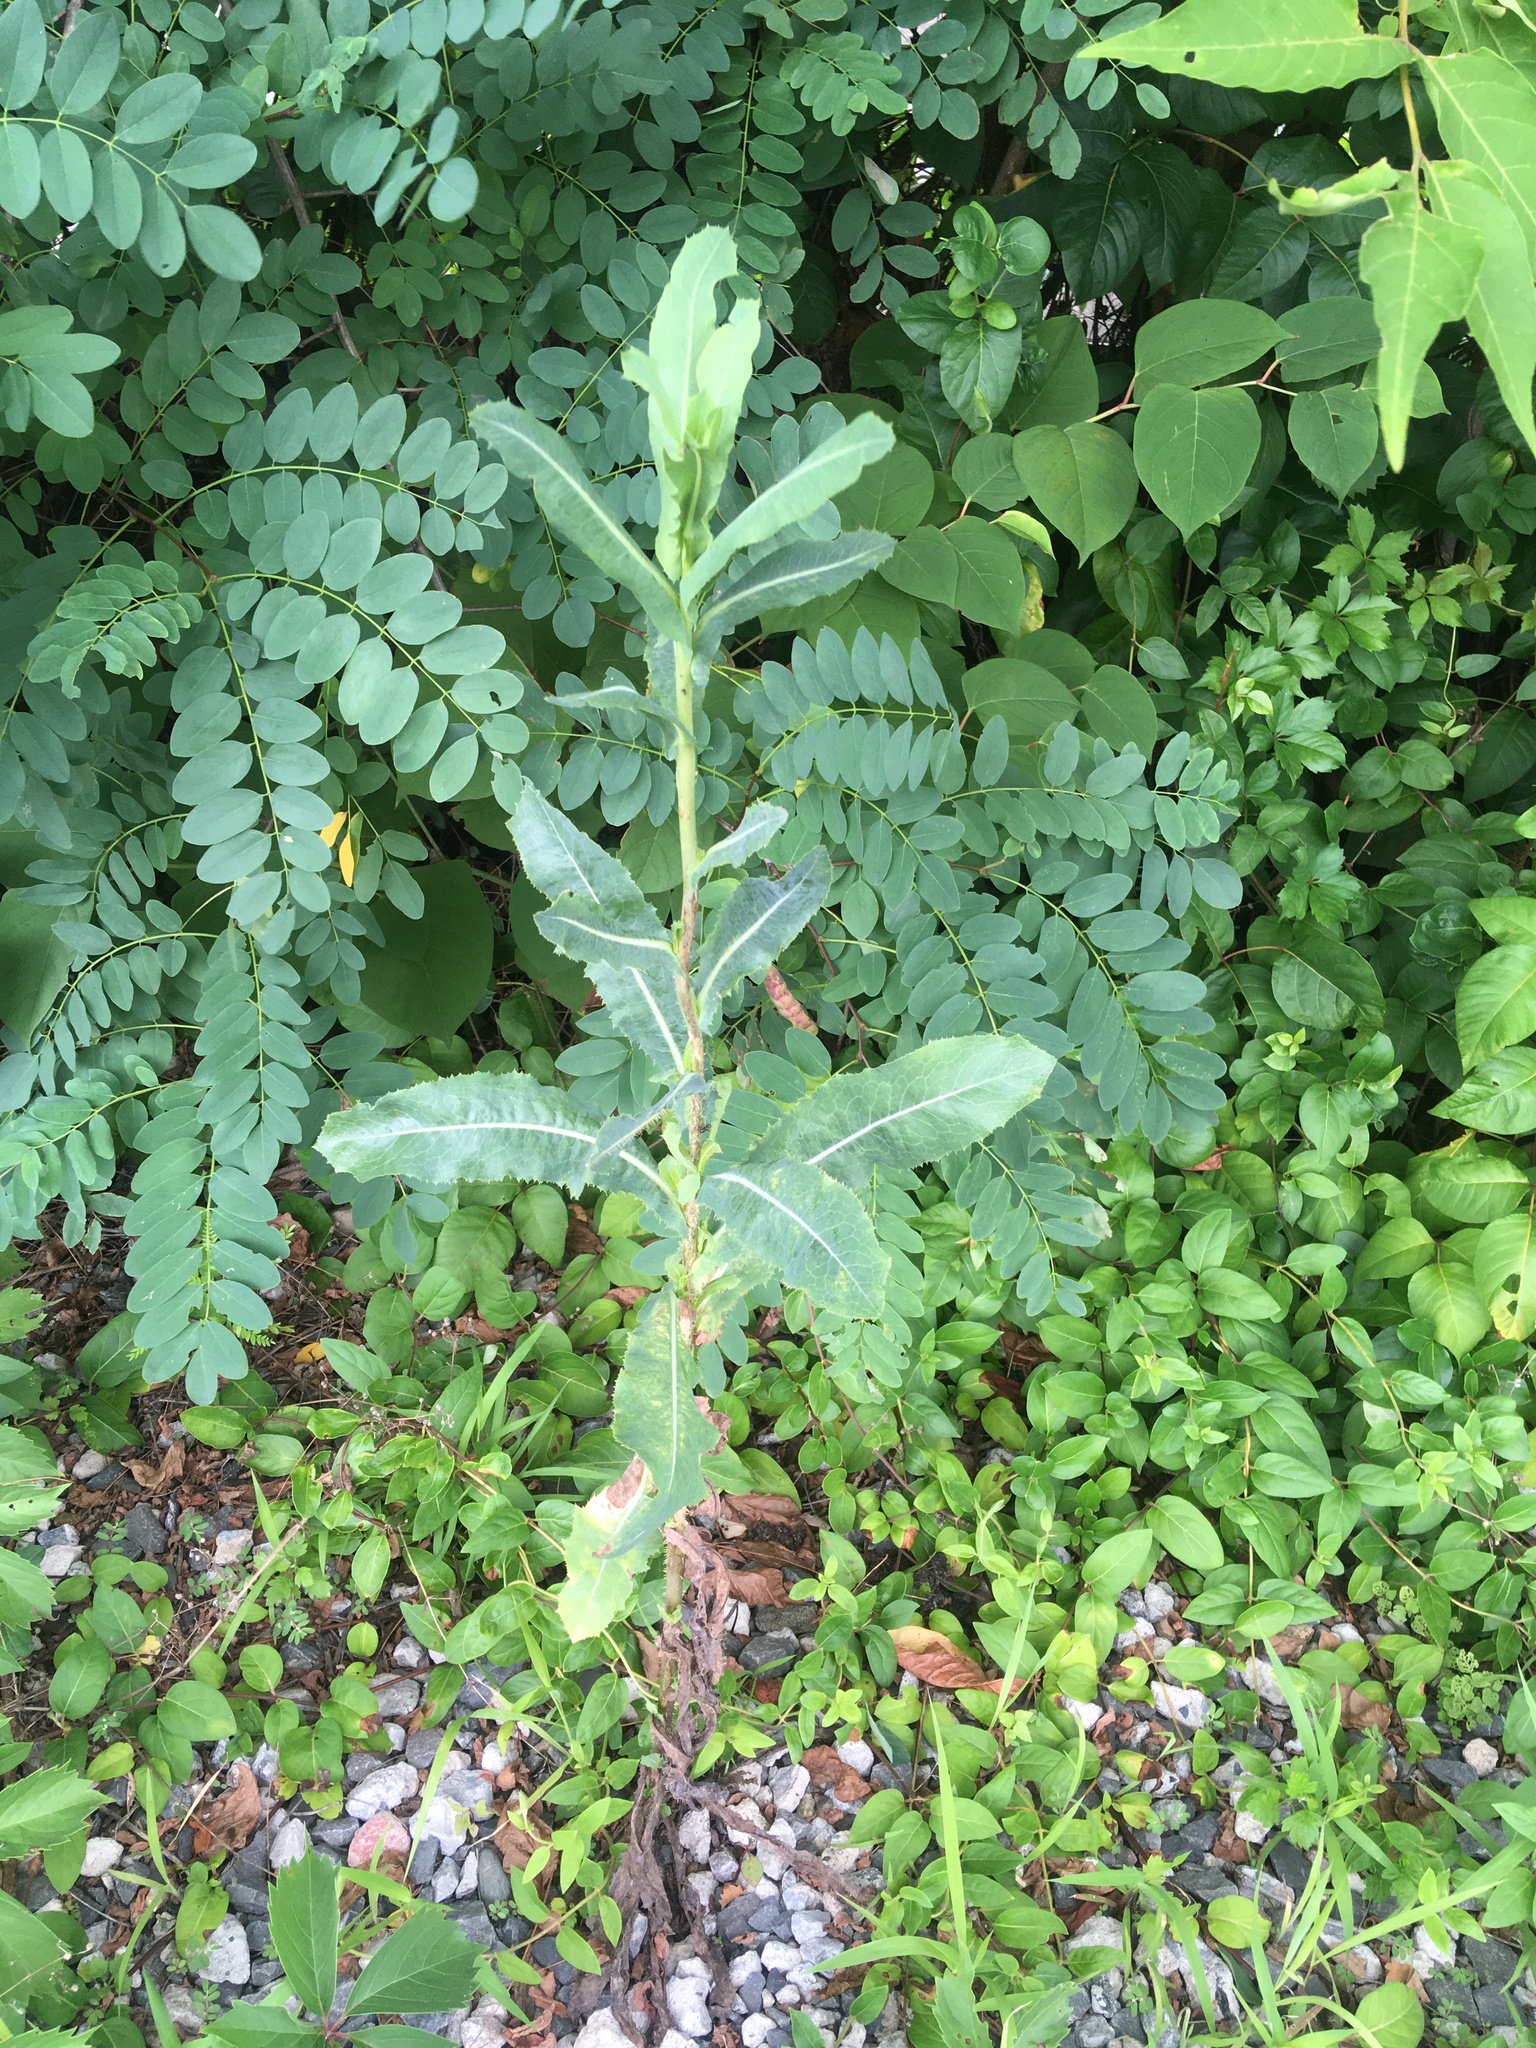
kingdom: Plantae
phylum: Tracheophyta
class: Magnoliopsida
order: Asterales
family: Asteraceae
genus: Lactuca
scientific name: Lactuca serriola
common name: Prickly lettuce
